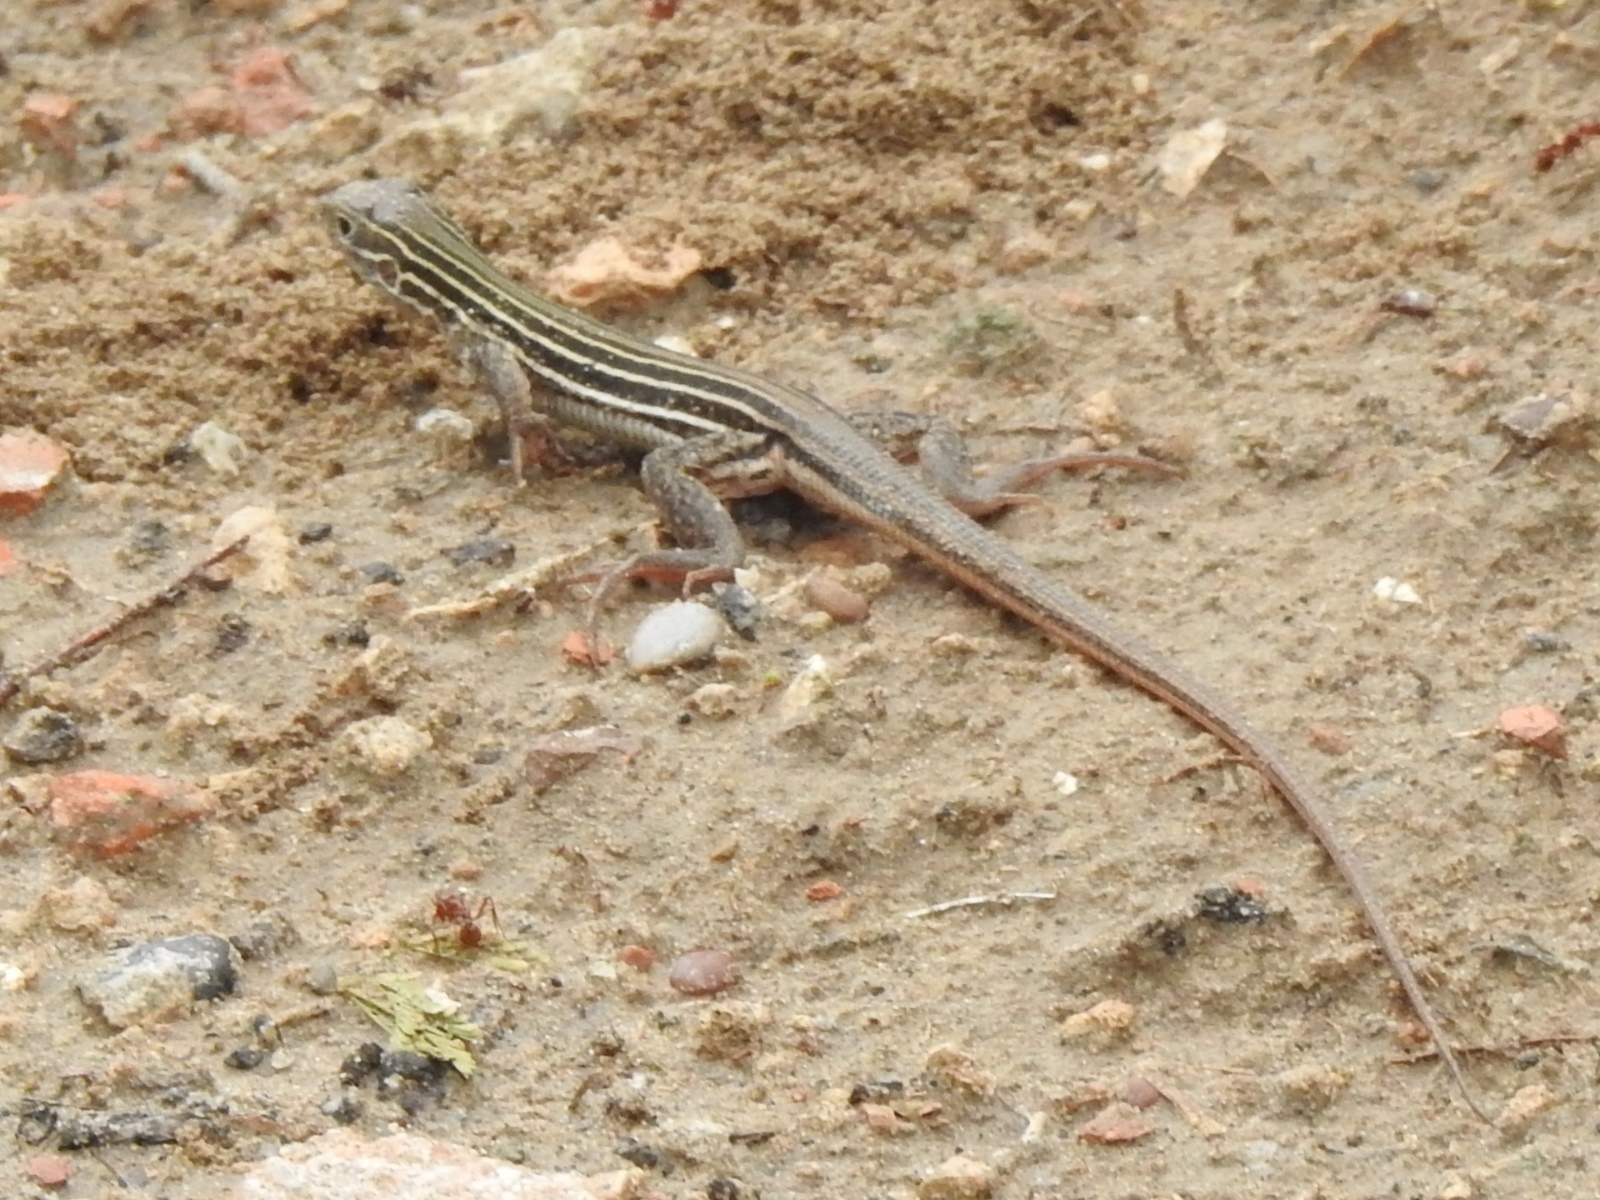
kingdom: Animalia
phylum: Chordata
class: Squamata
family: Teiidae
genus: Aspidoscelis
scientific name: Aspidoscelis gularis
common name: Eastern spotted whiptail
